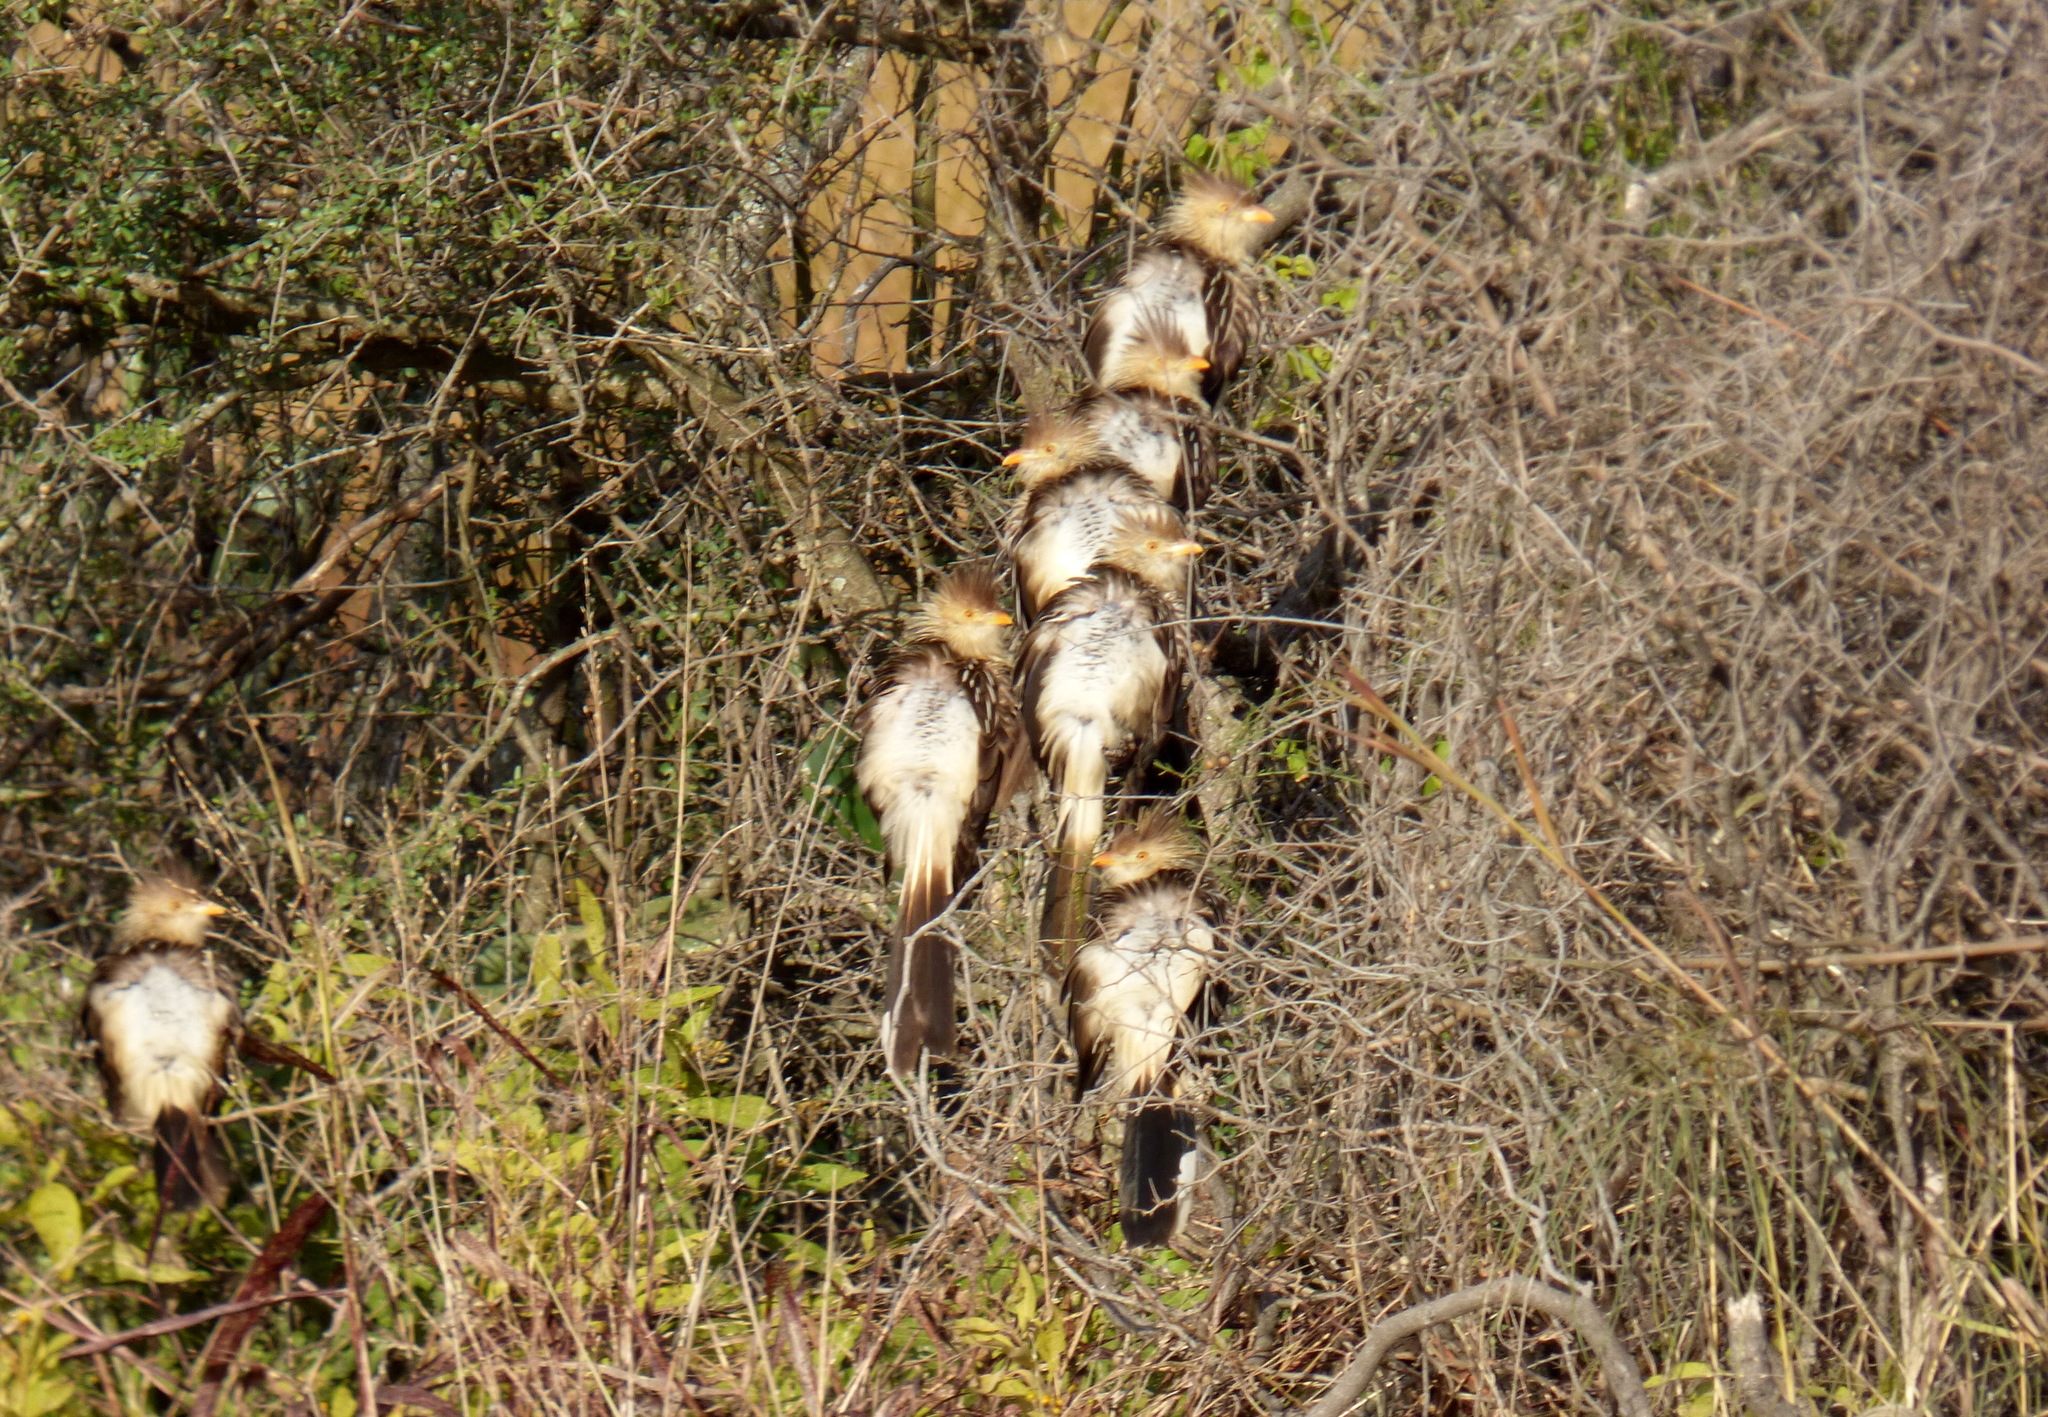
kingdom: Animalia
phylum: Chordata
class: Aves
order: Cuculiformes
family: Cuculidae
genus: Guira
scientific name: Guira guira
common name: Guira cuckoo
